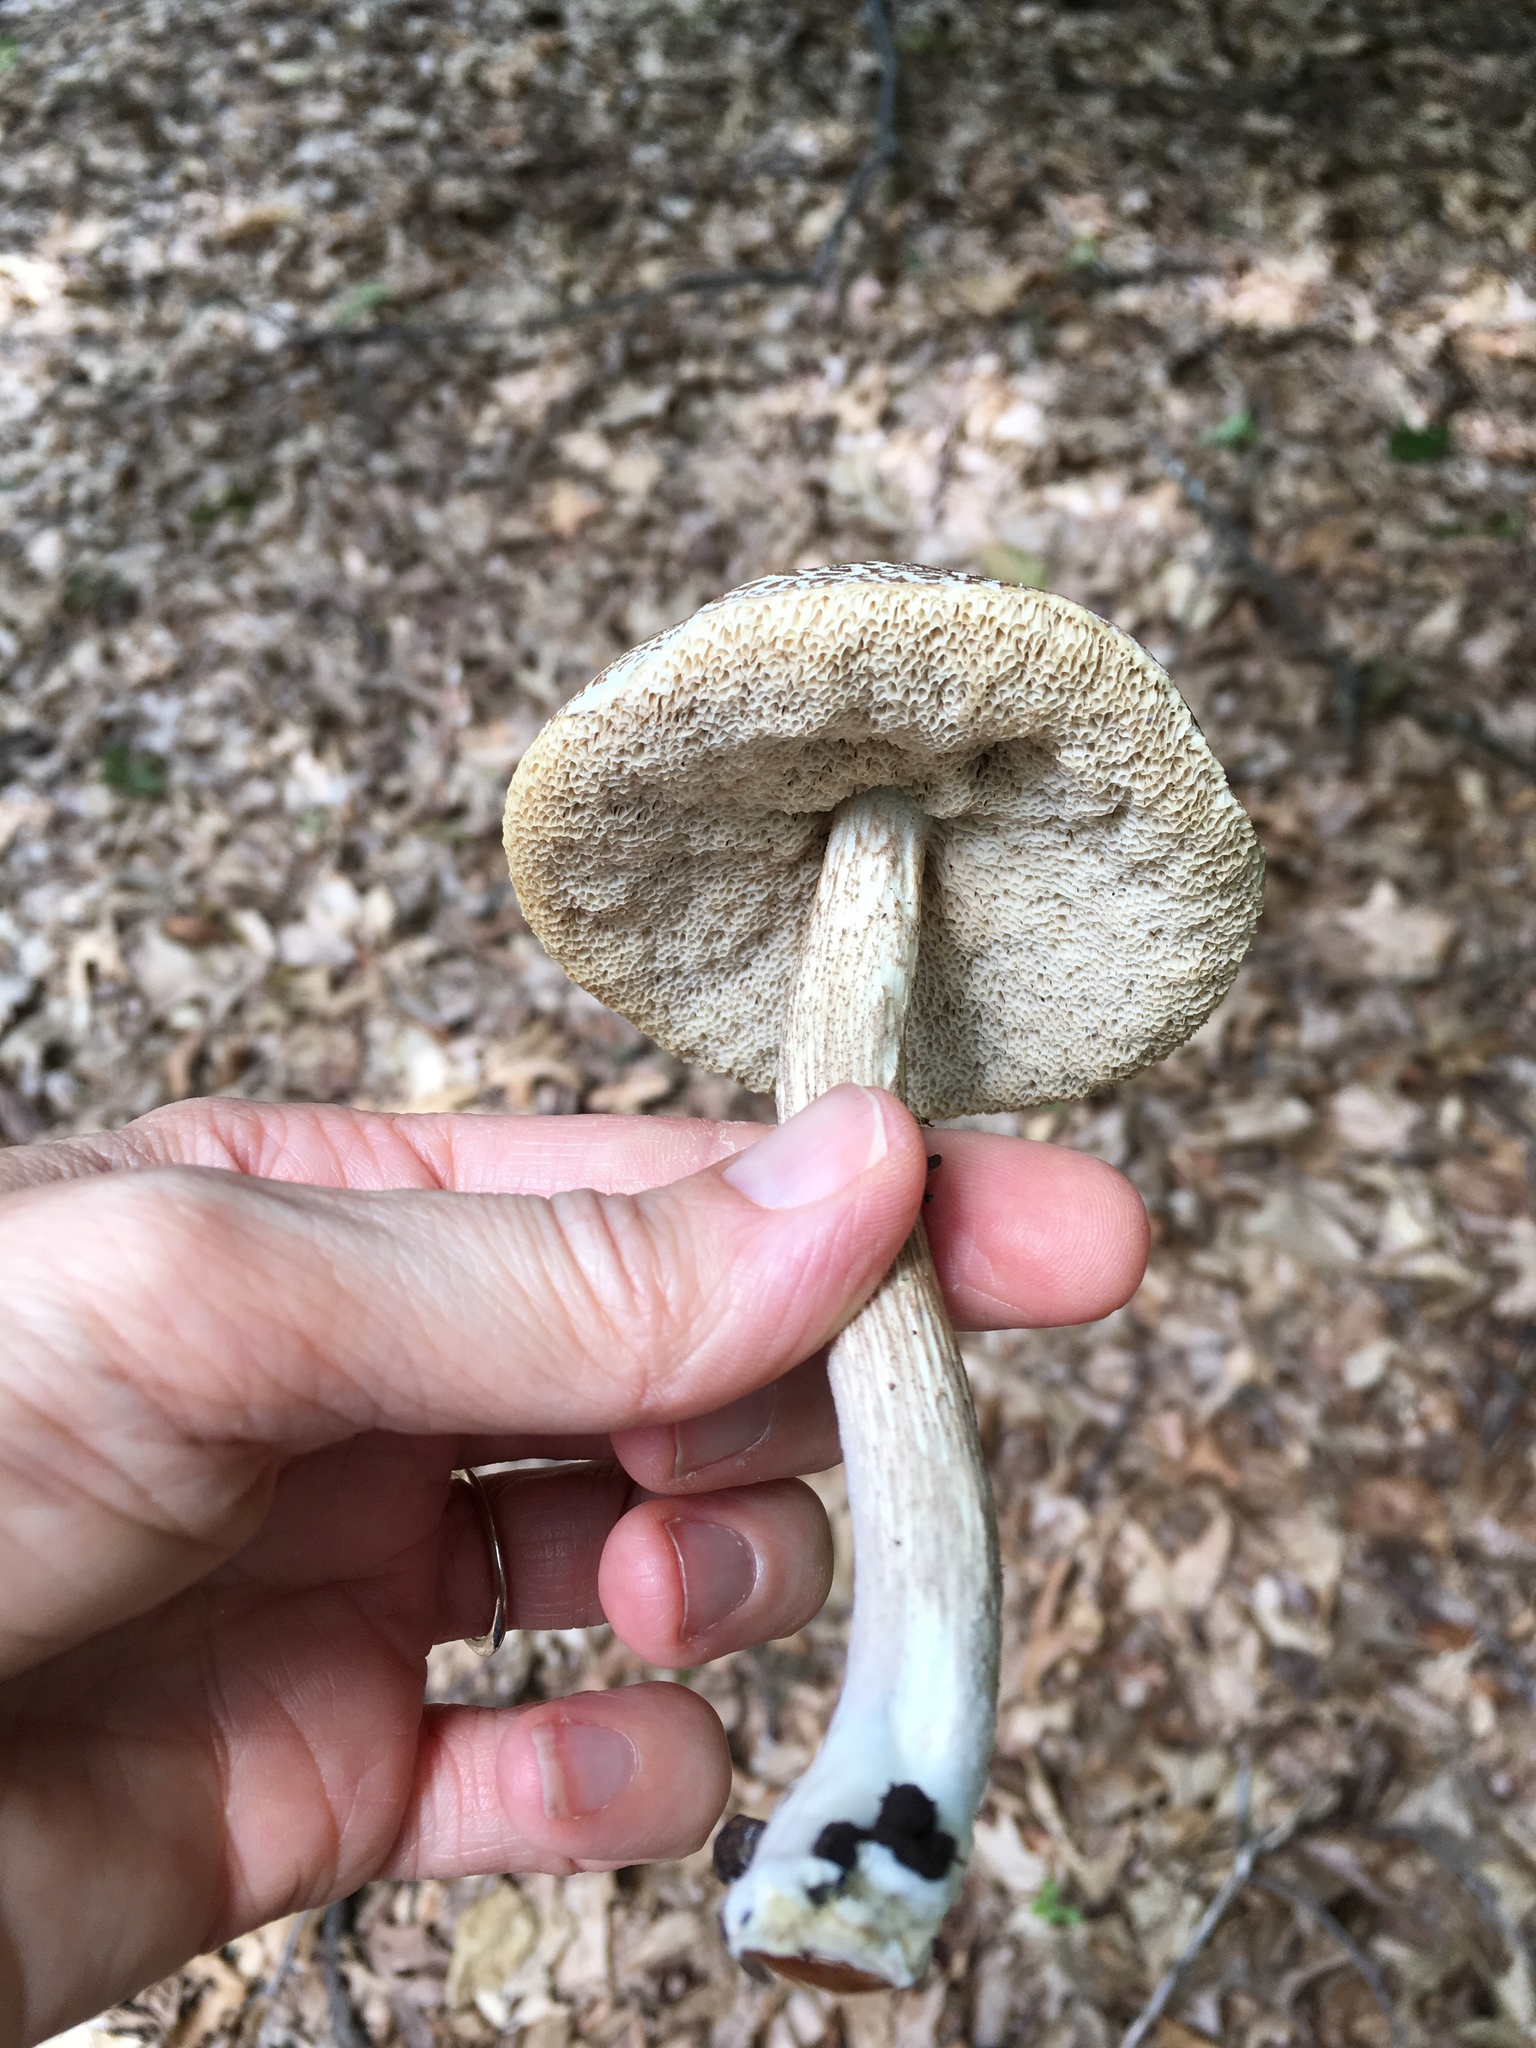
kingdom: Fungi
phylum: Basidiomycota
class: Agaricomycetes
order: Boletales
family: Boletaceae
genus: Leccinellum
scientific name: Leccinellum albellum
